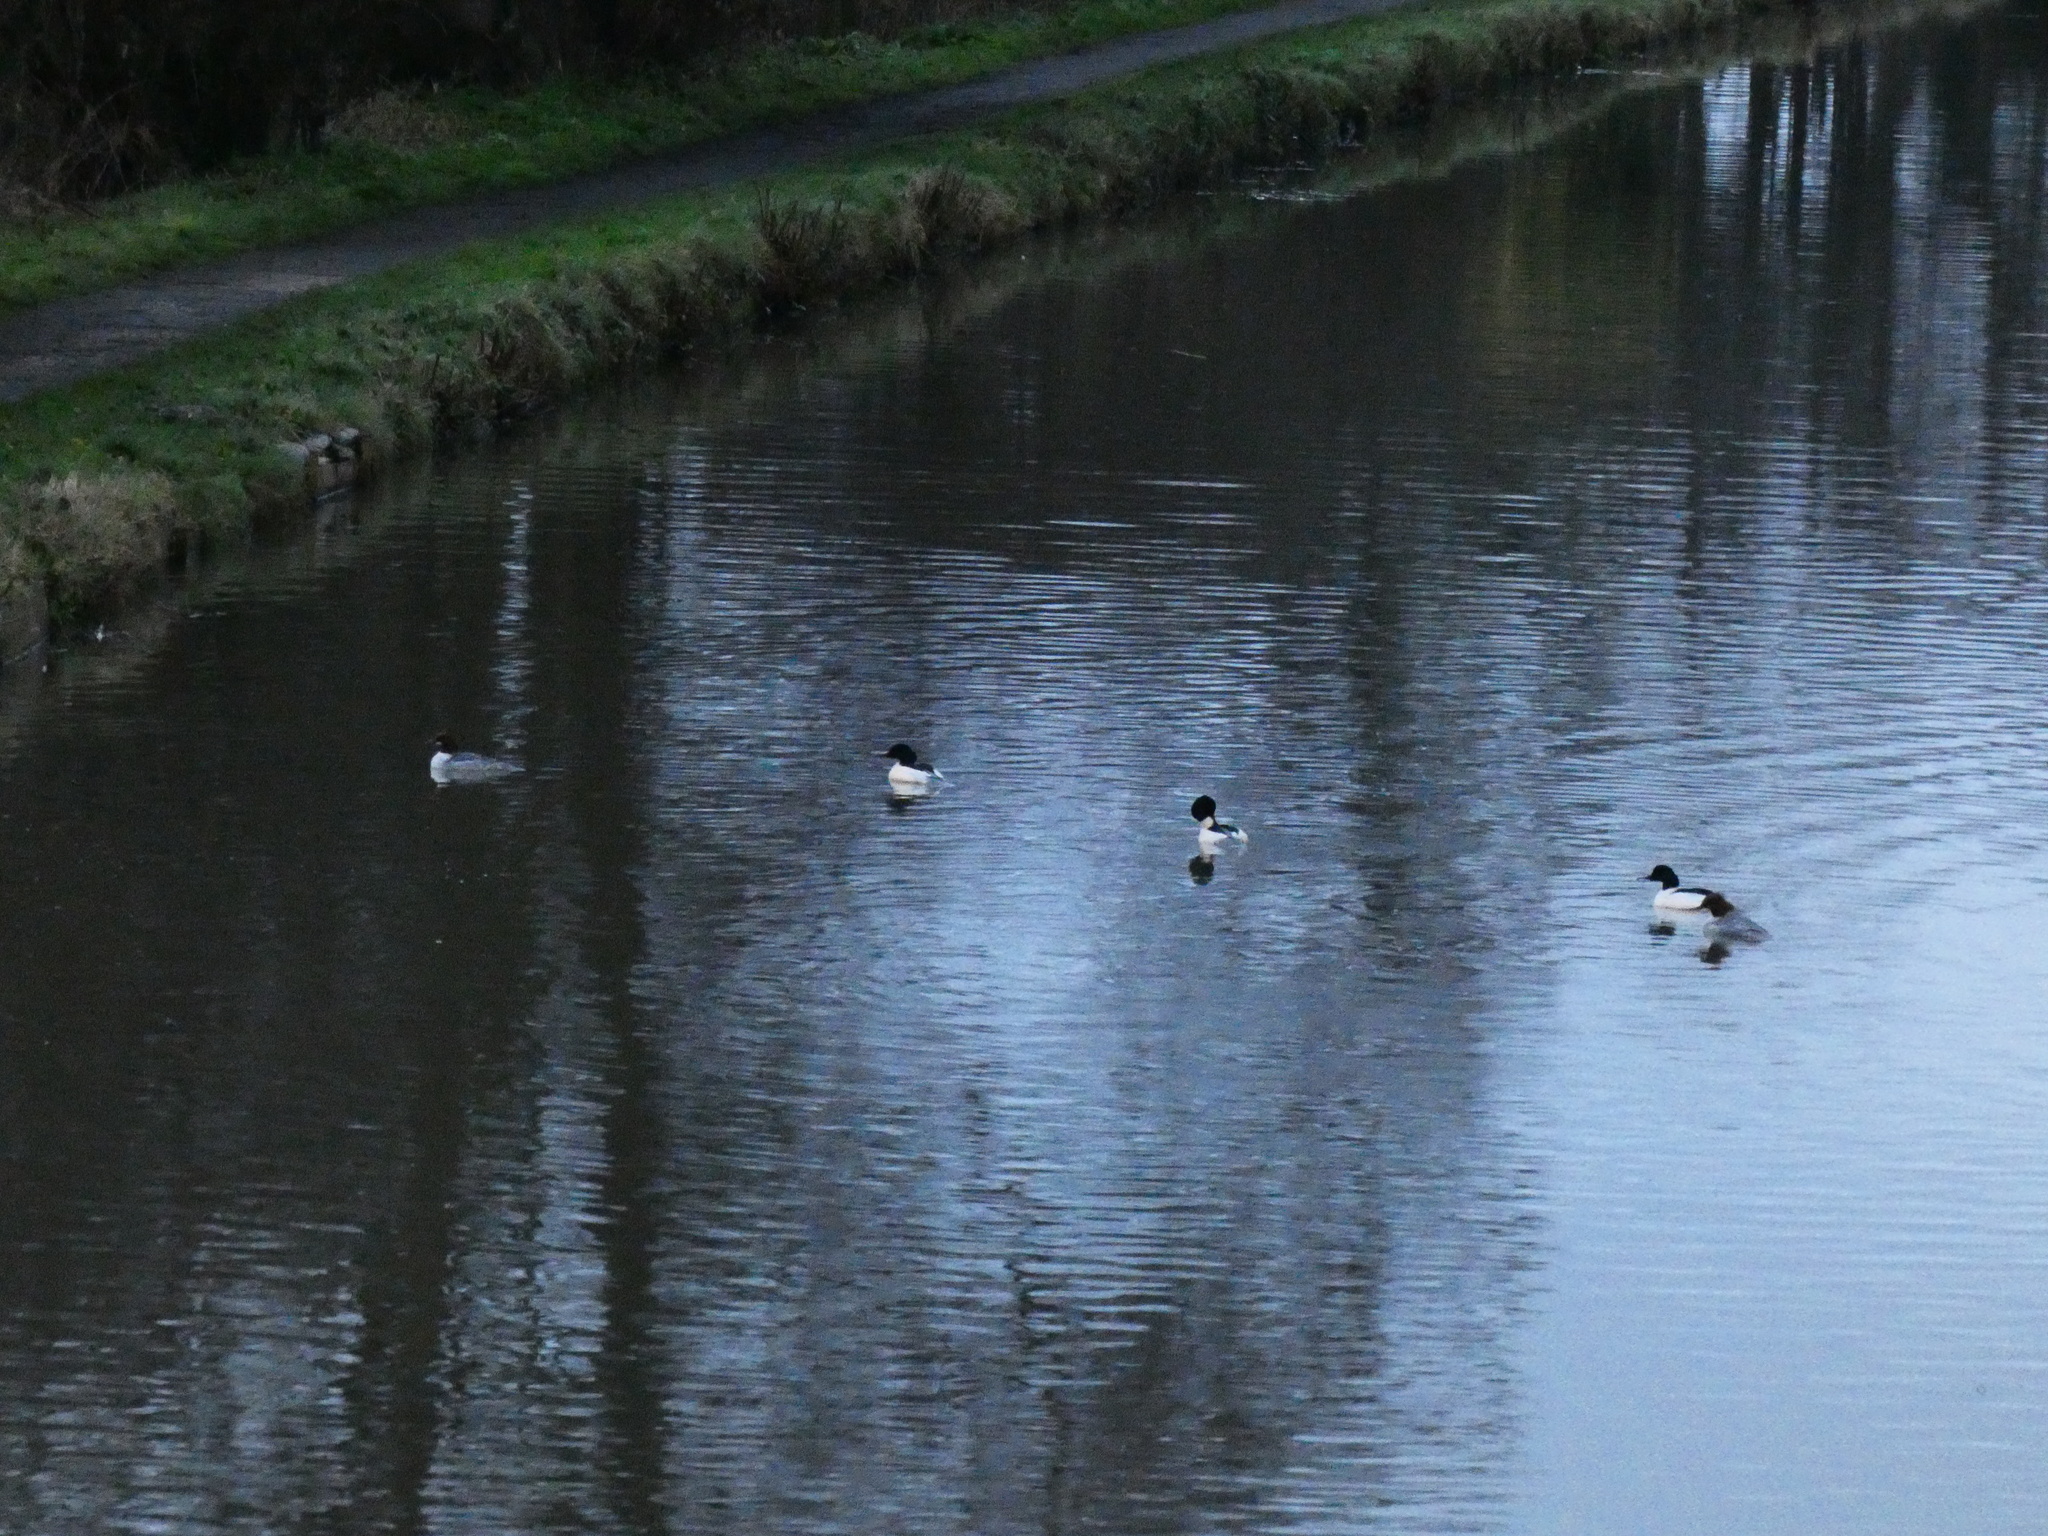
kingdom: Animalia
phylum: Chordata
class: Aves
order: Anseriformes
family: Anatidae
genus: Mergus
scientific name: Mergus merganser
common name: Common merganser
